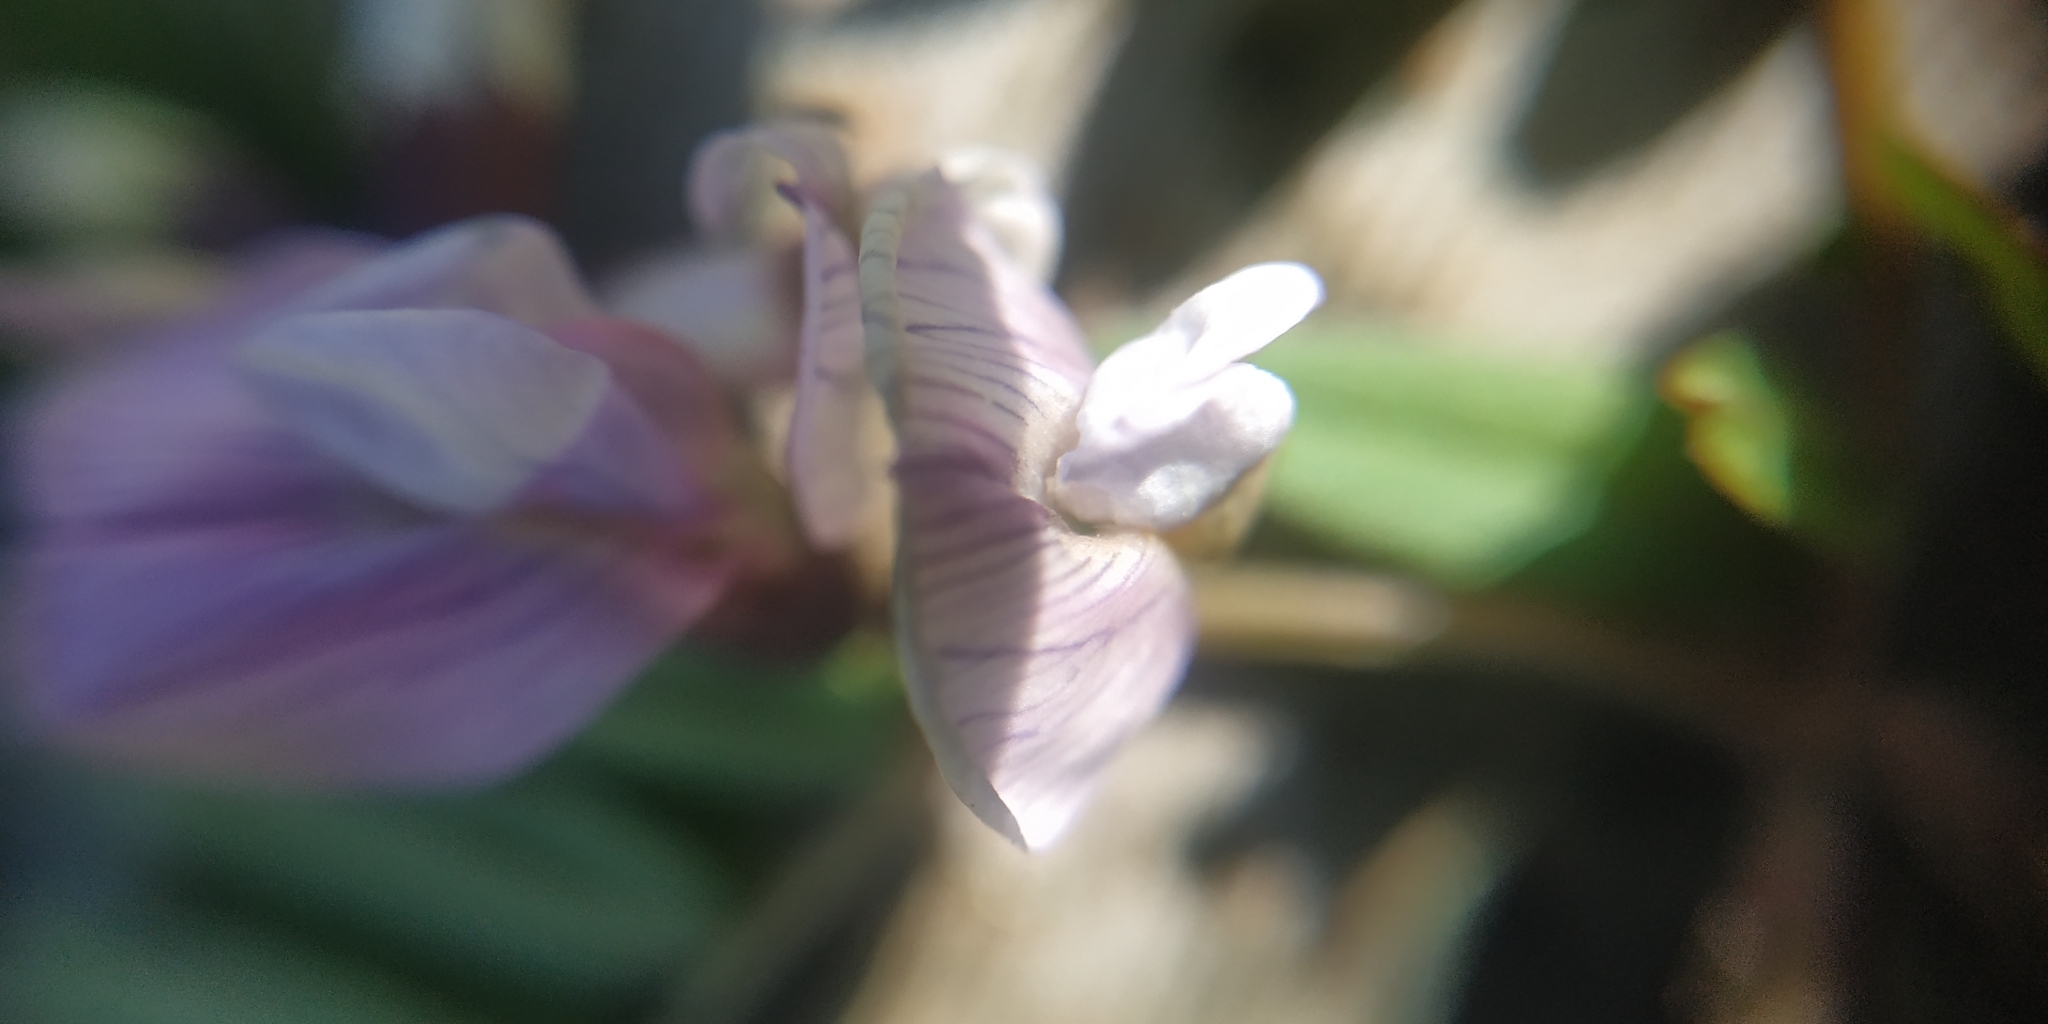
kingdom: Plantae
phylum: Tracheophyta
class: Magnoliopsida
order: Fabales
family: Fabaceae
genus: Vicia
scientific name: Vicia sepium
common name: Bush vetch
